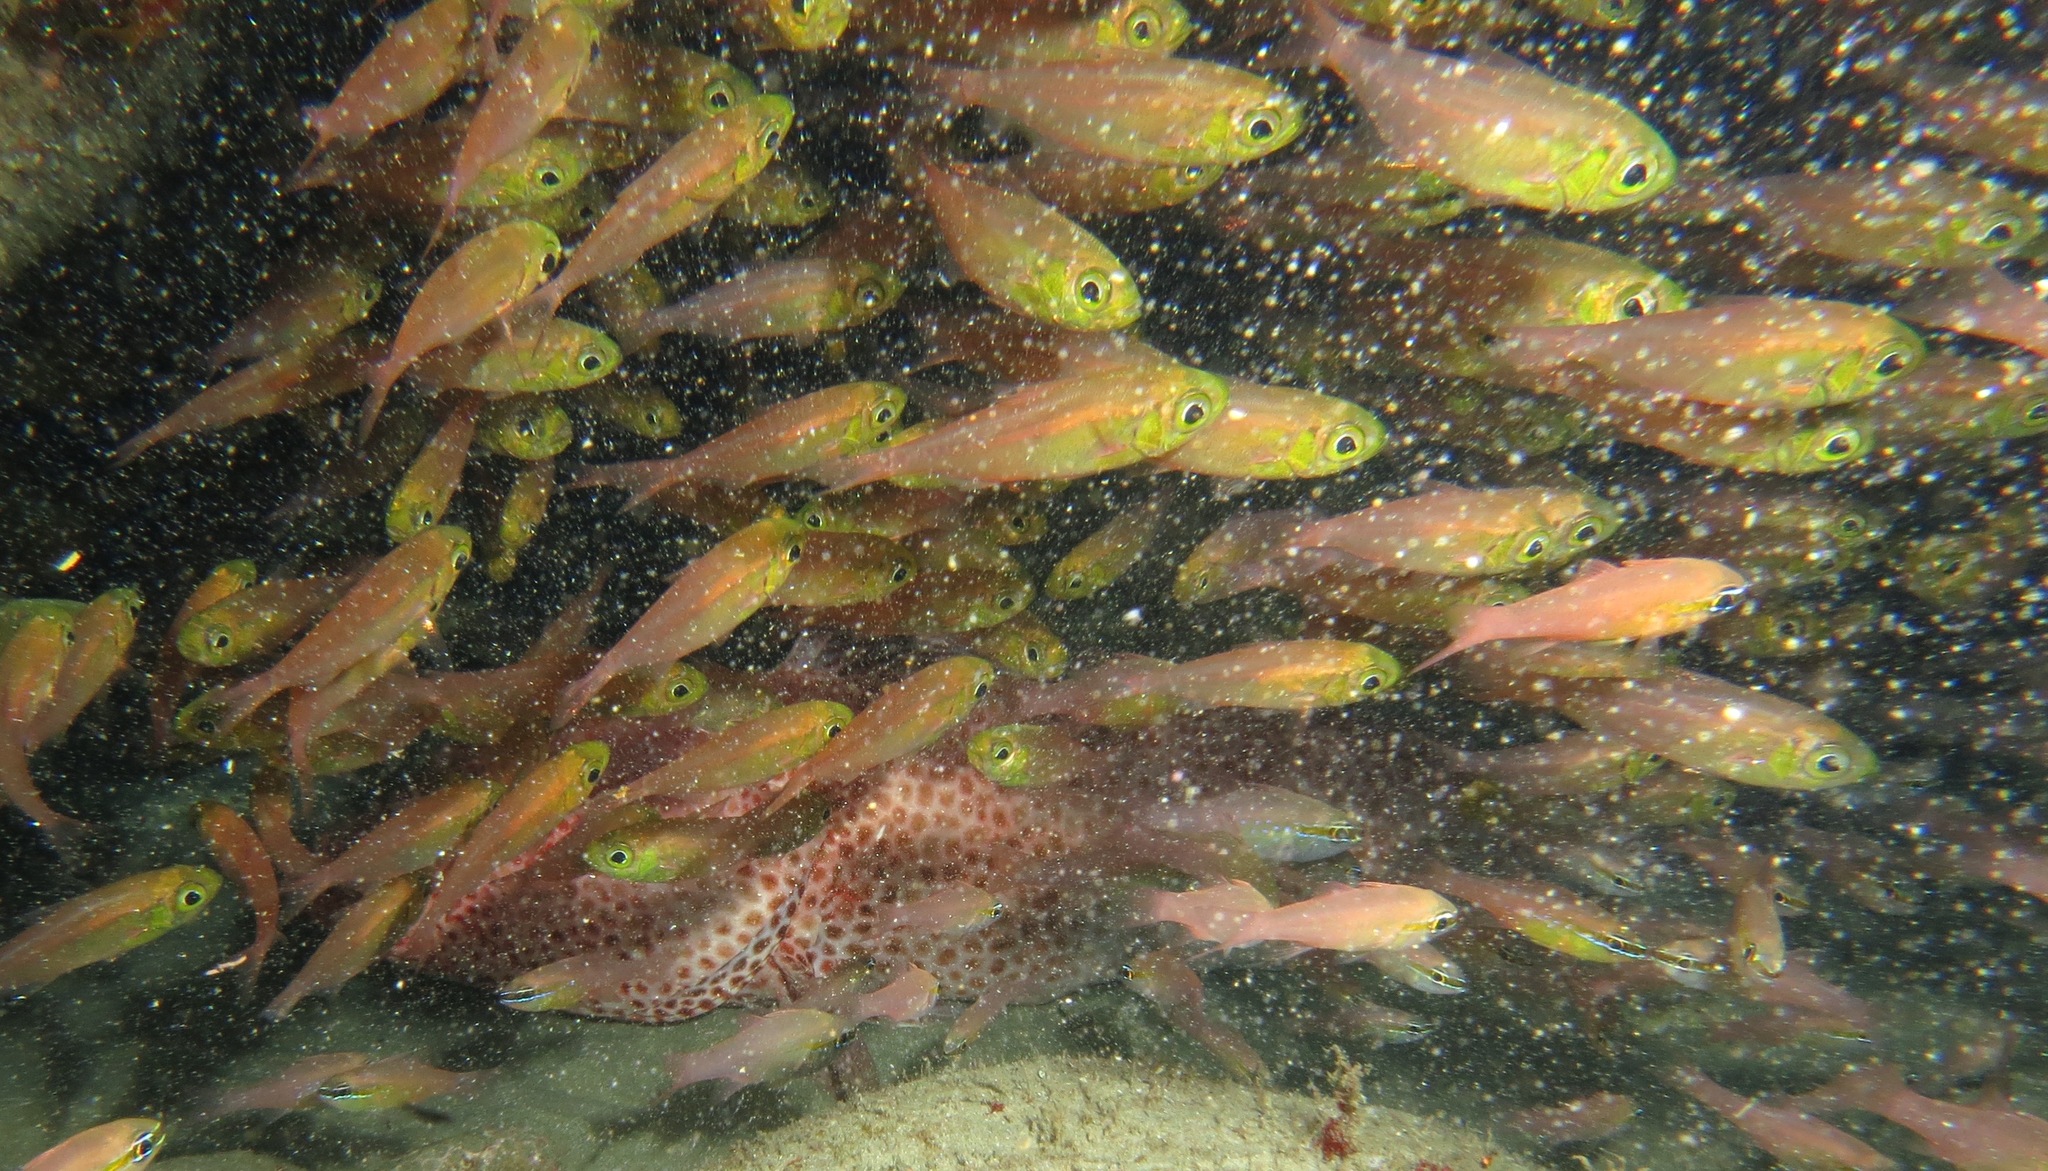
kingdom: Animalia
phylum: Chordata
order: Perciformes
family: Pempheridae
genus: Parapriacanthus
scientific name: Parapriacanthus ransonneti
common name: Pigmy sweeper
